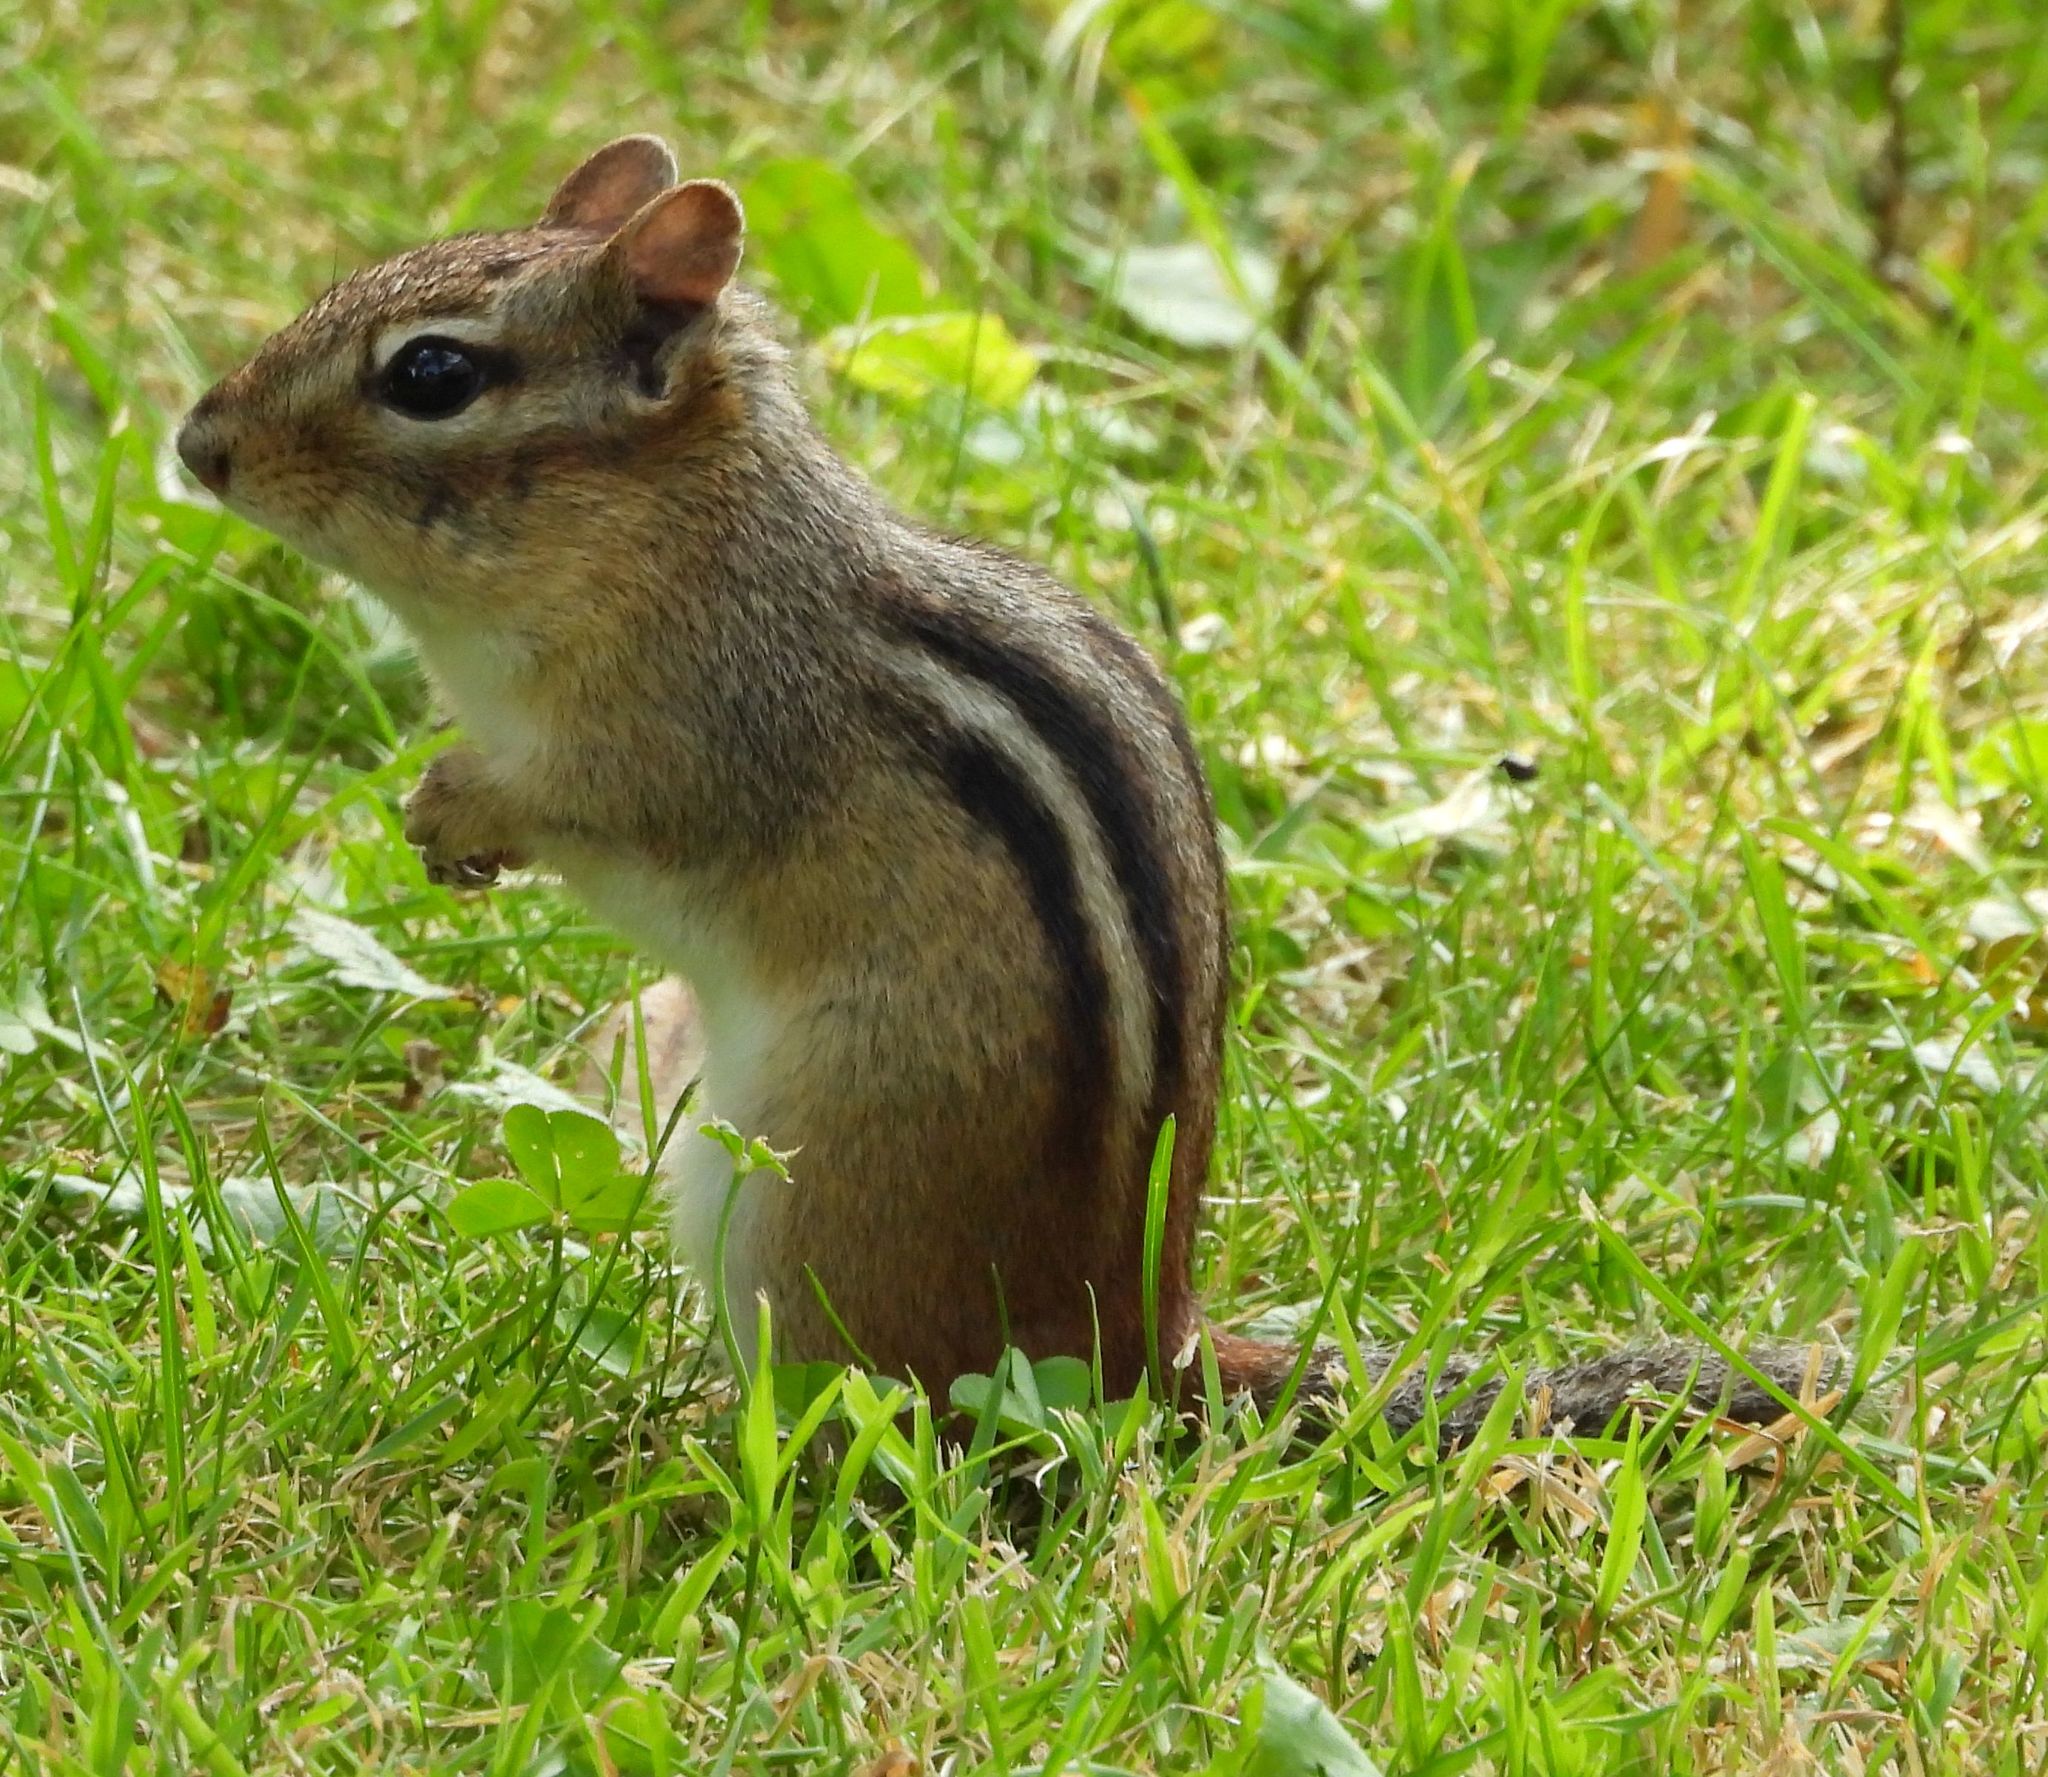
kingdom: Animalia
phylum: Chordata
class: Mammalia
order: Rodentia
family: Sciuridae
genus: Tamias
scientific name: Tamias striatus
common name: Eastern chipmunk
